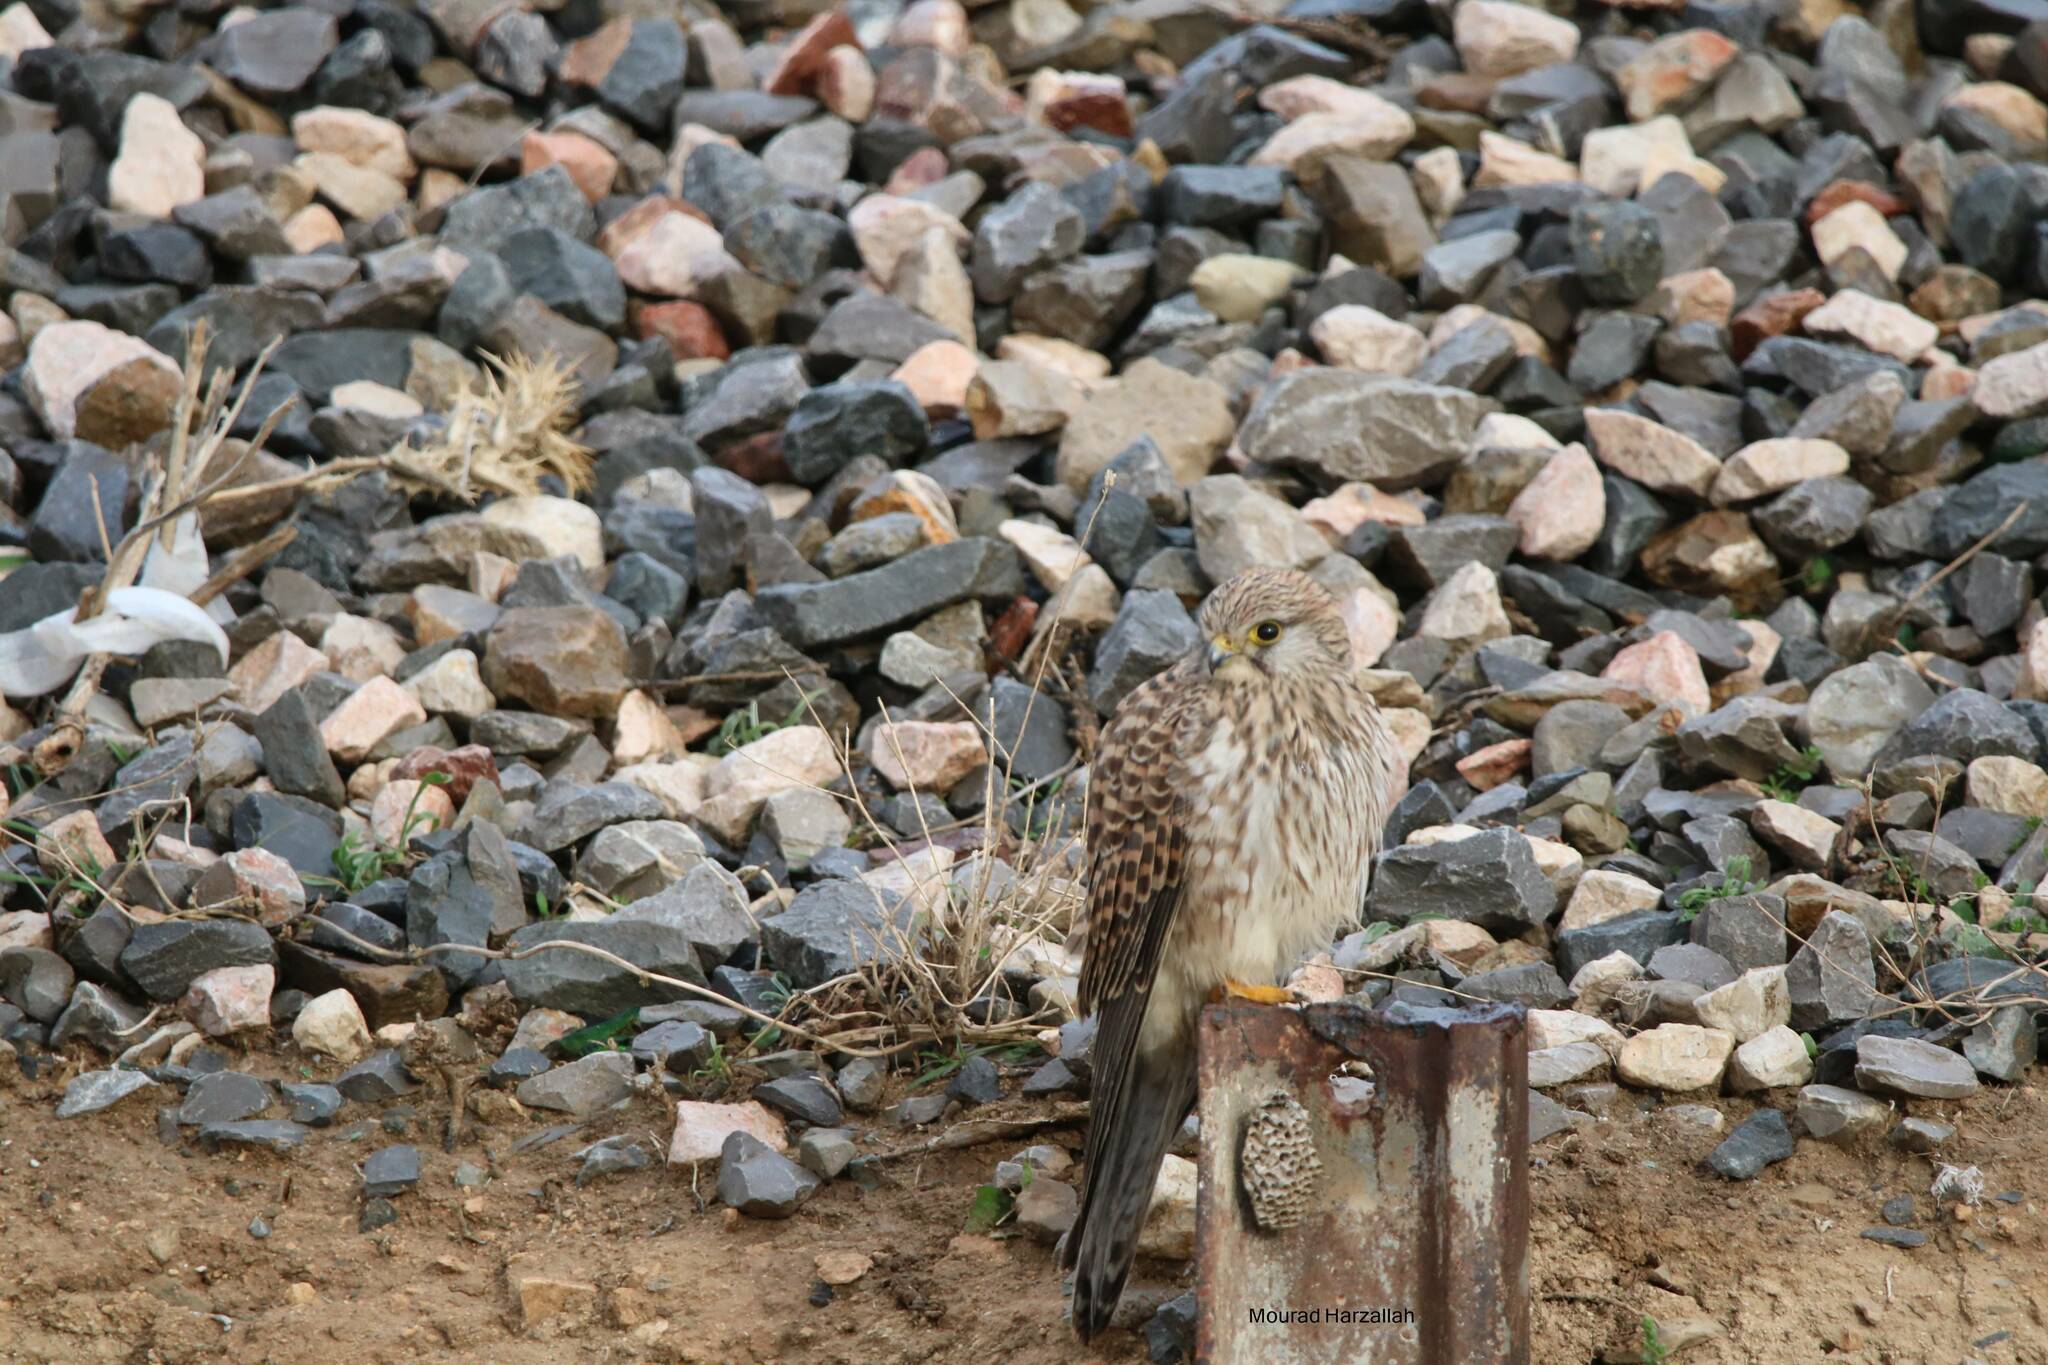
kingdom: Animalia
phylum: Chordata
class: Aves
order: Falconiformes
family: Falconidae
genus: Falco
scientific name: Falco tinnunculus
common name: Common kestrel
